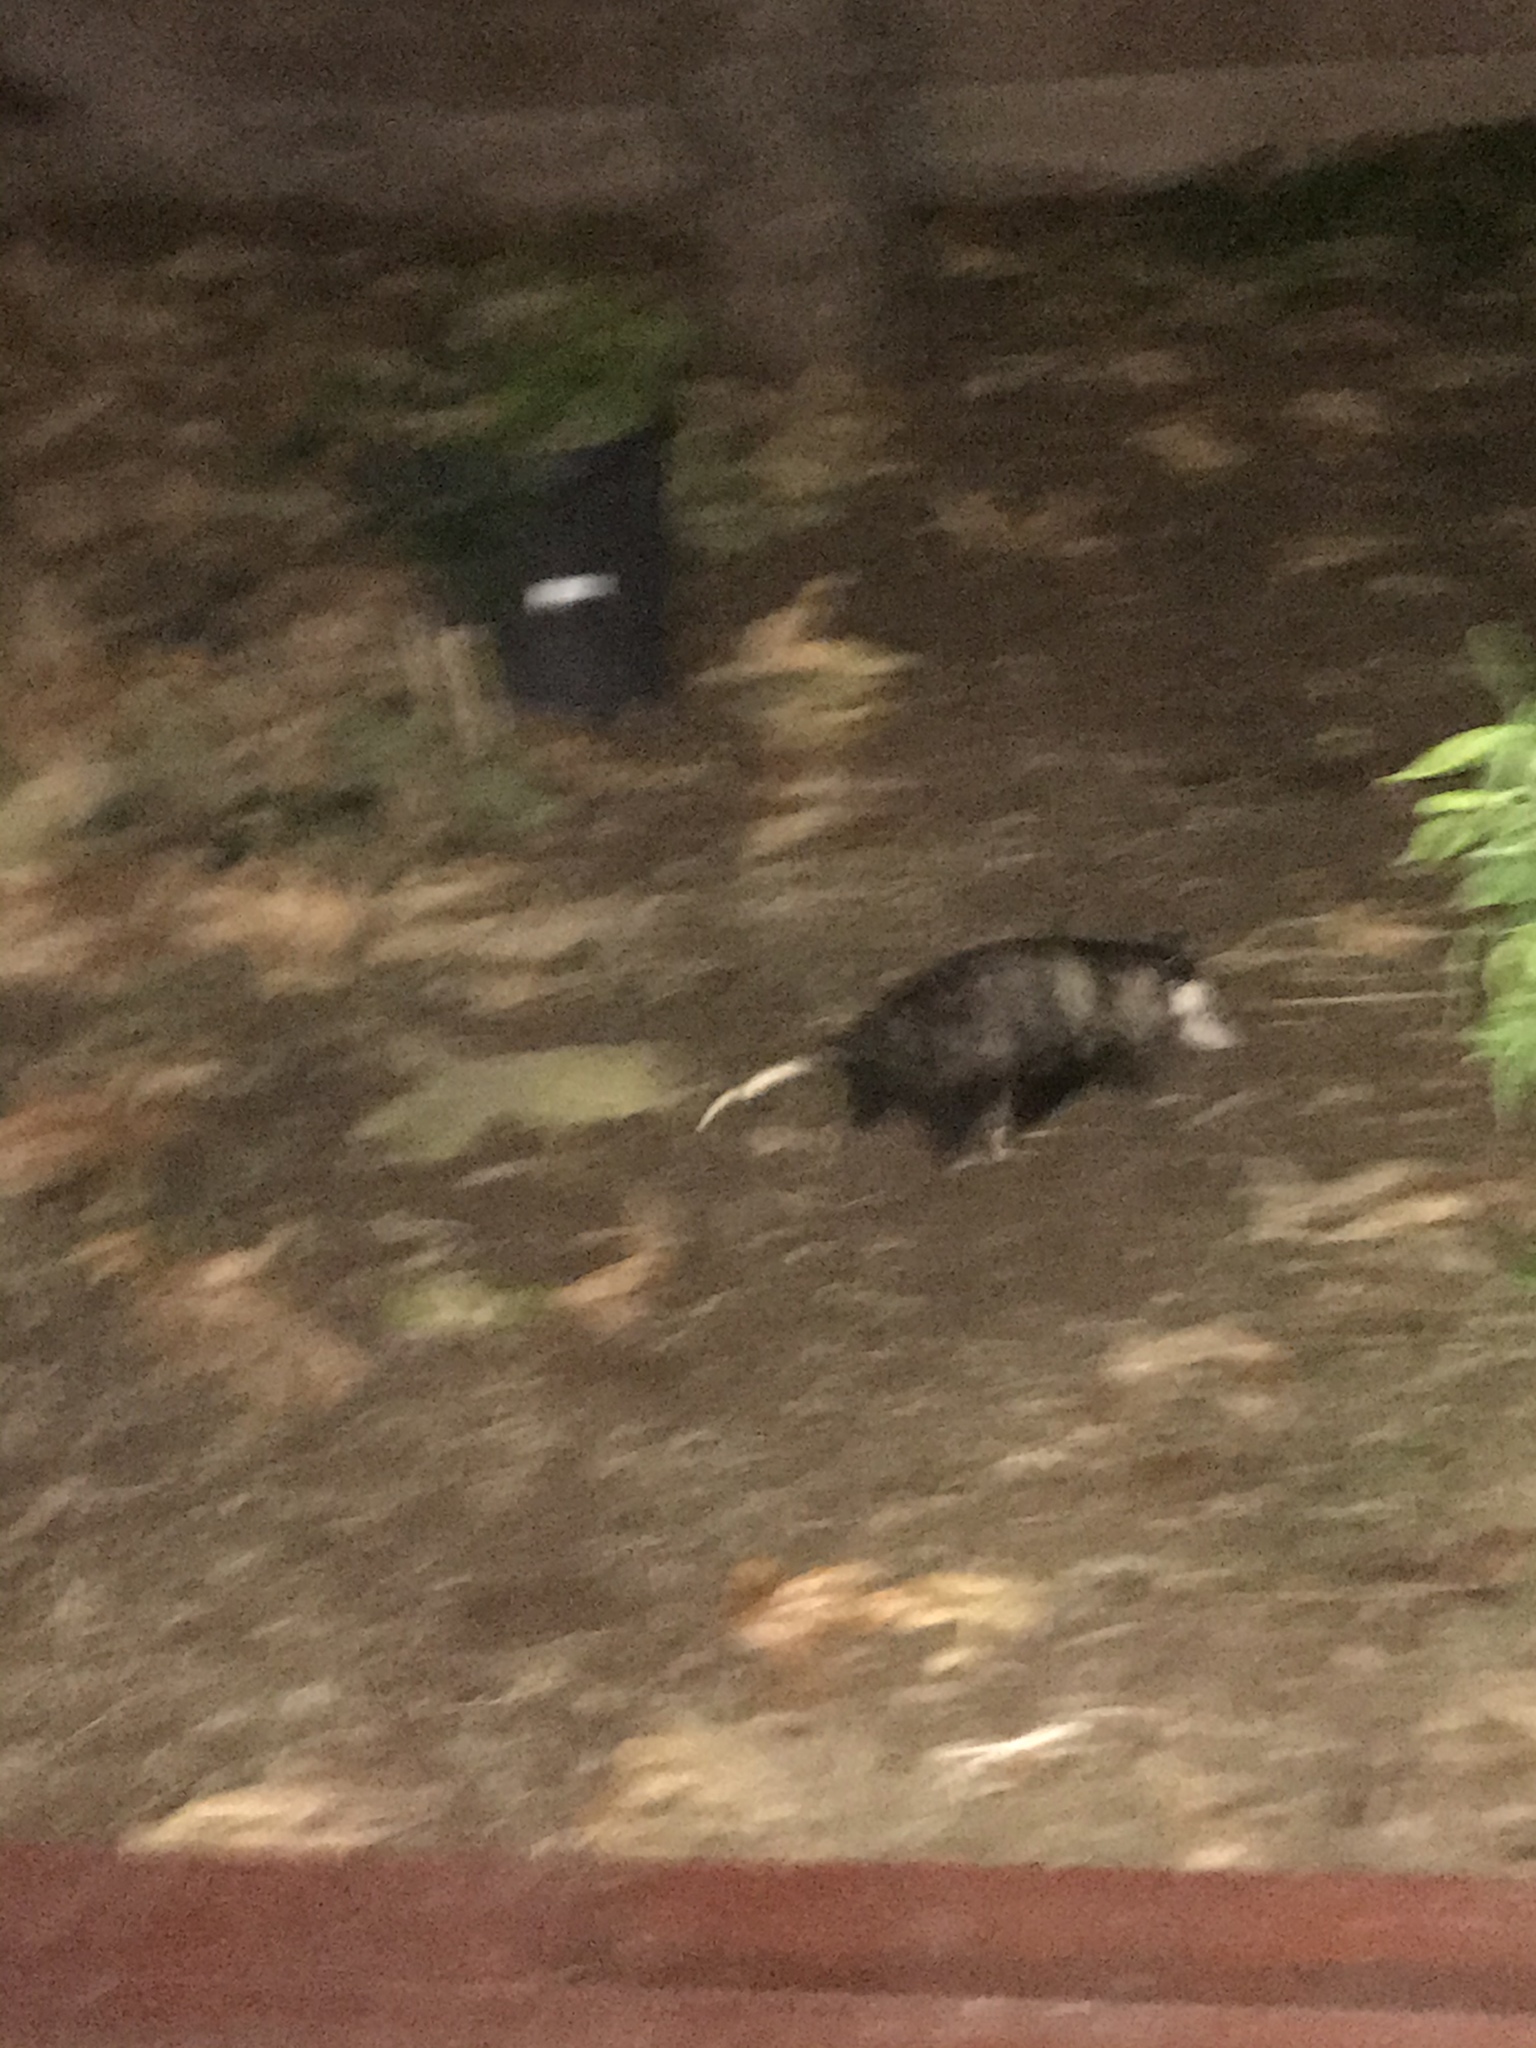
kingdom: Animalia
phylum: Chordata
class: Mammalia
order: Didelphimorphia
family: Didelphidae
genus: Didelphis
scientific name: Didelphis virginiana
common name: Virginia opossum
